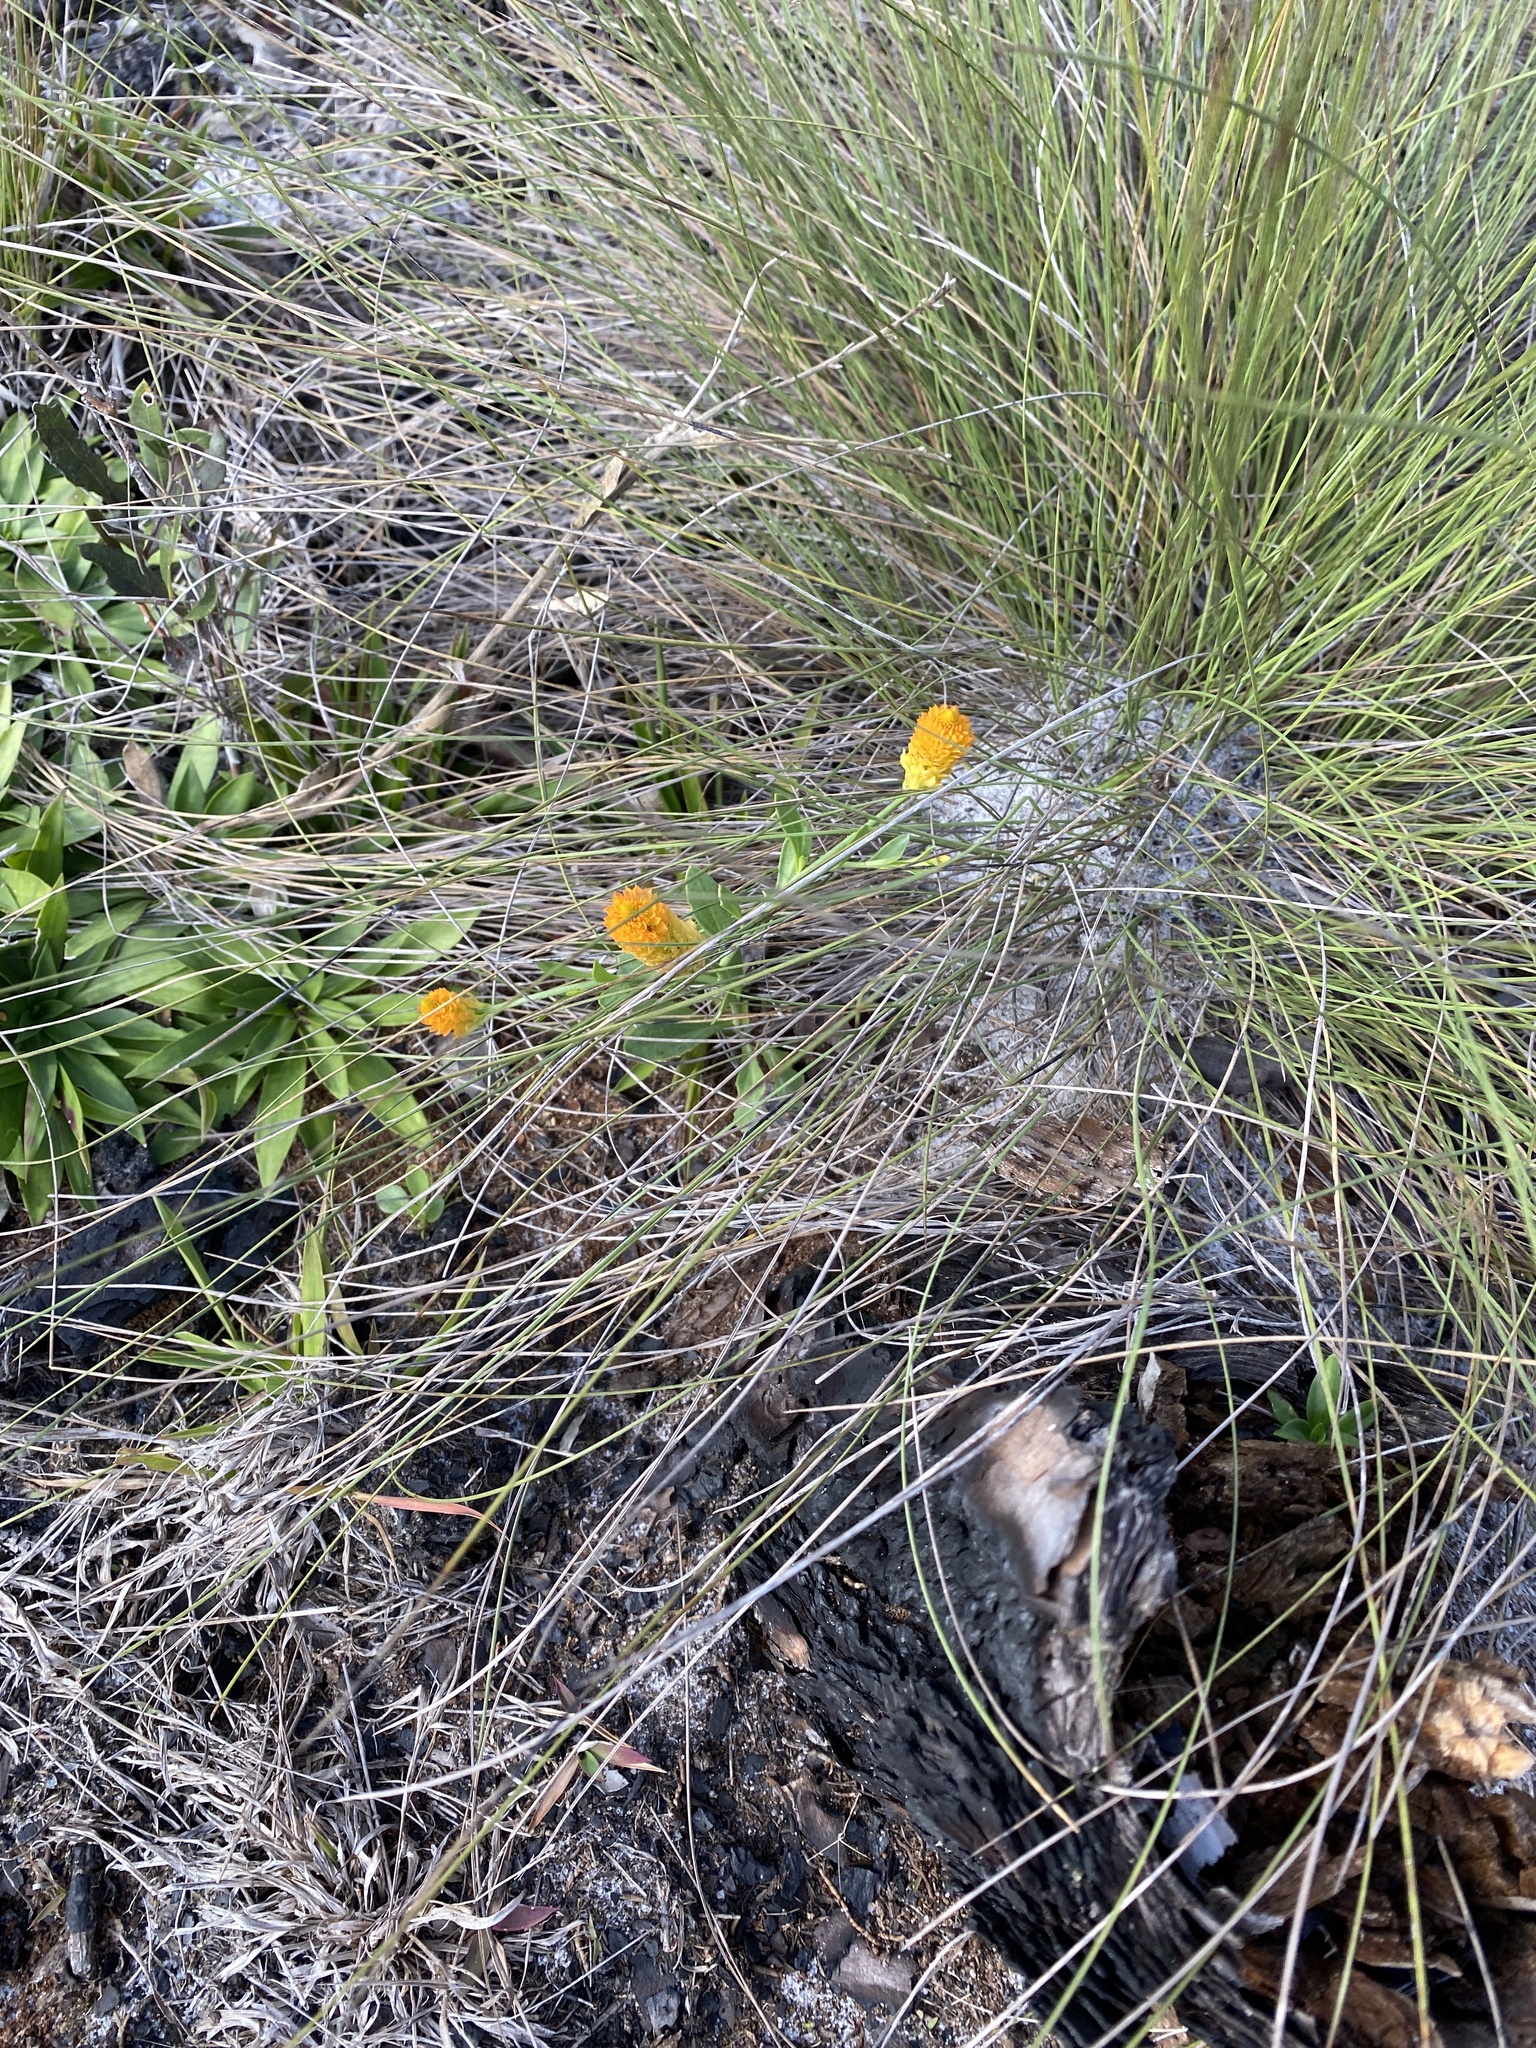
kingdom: Plantae
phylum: Tracheophyta
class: Magnoliopsida
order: Fabales
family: Polygalaceae
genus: Polygala
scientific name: Polygala lutea
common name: Orange milkwort
